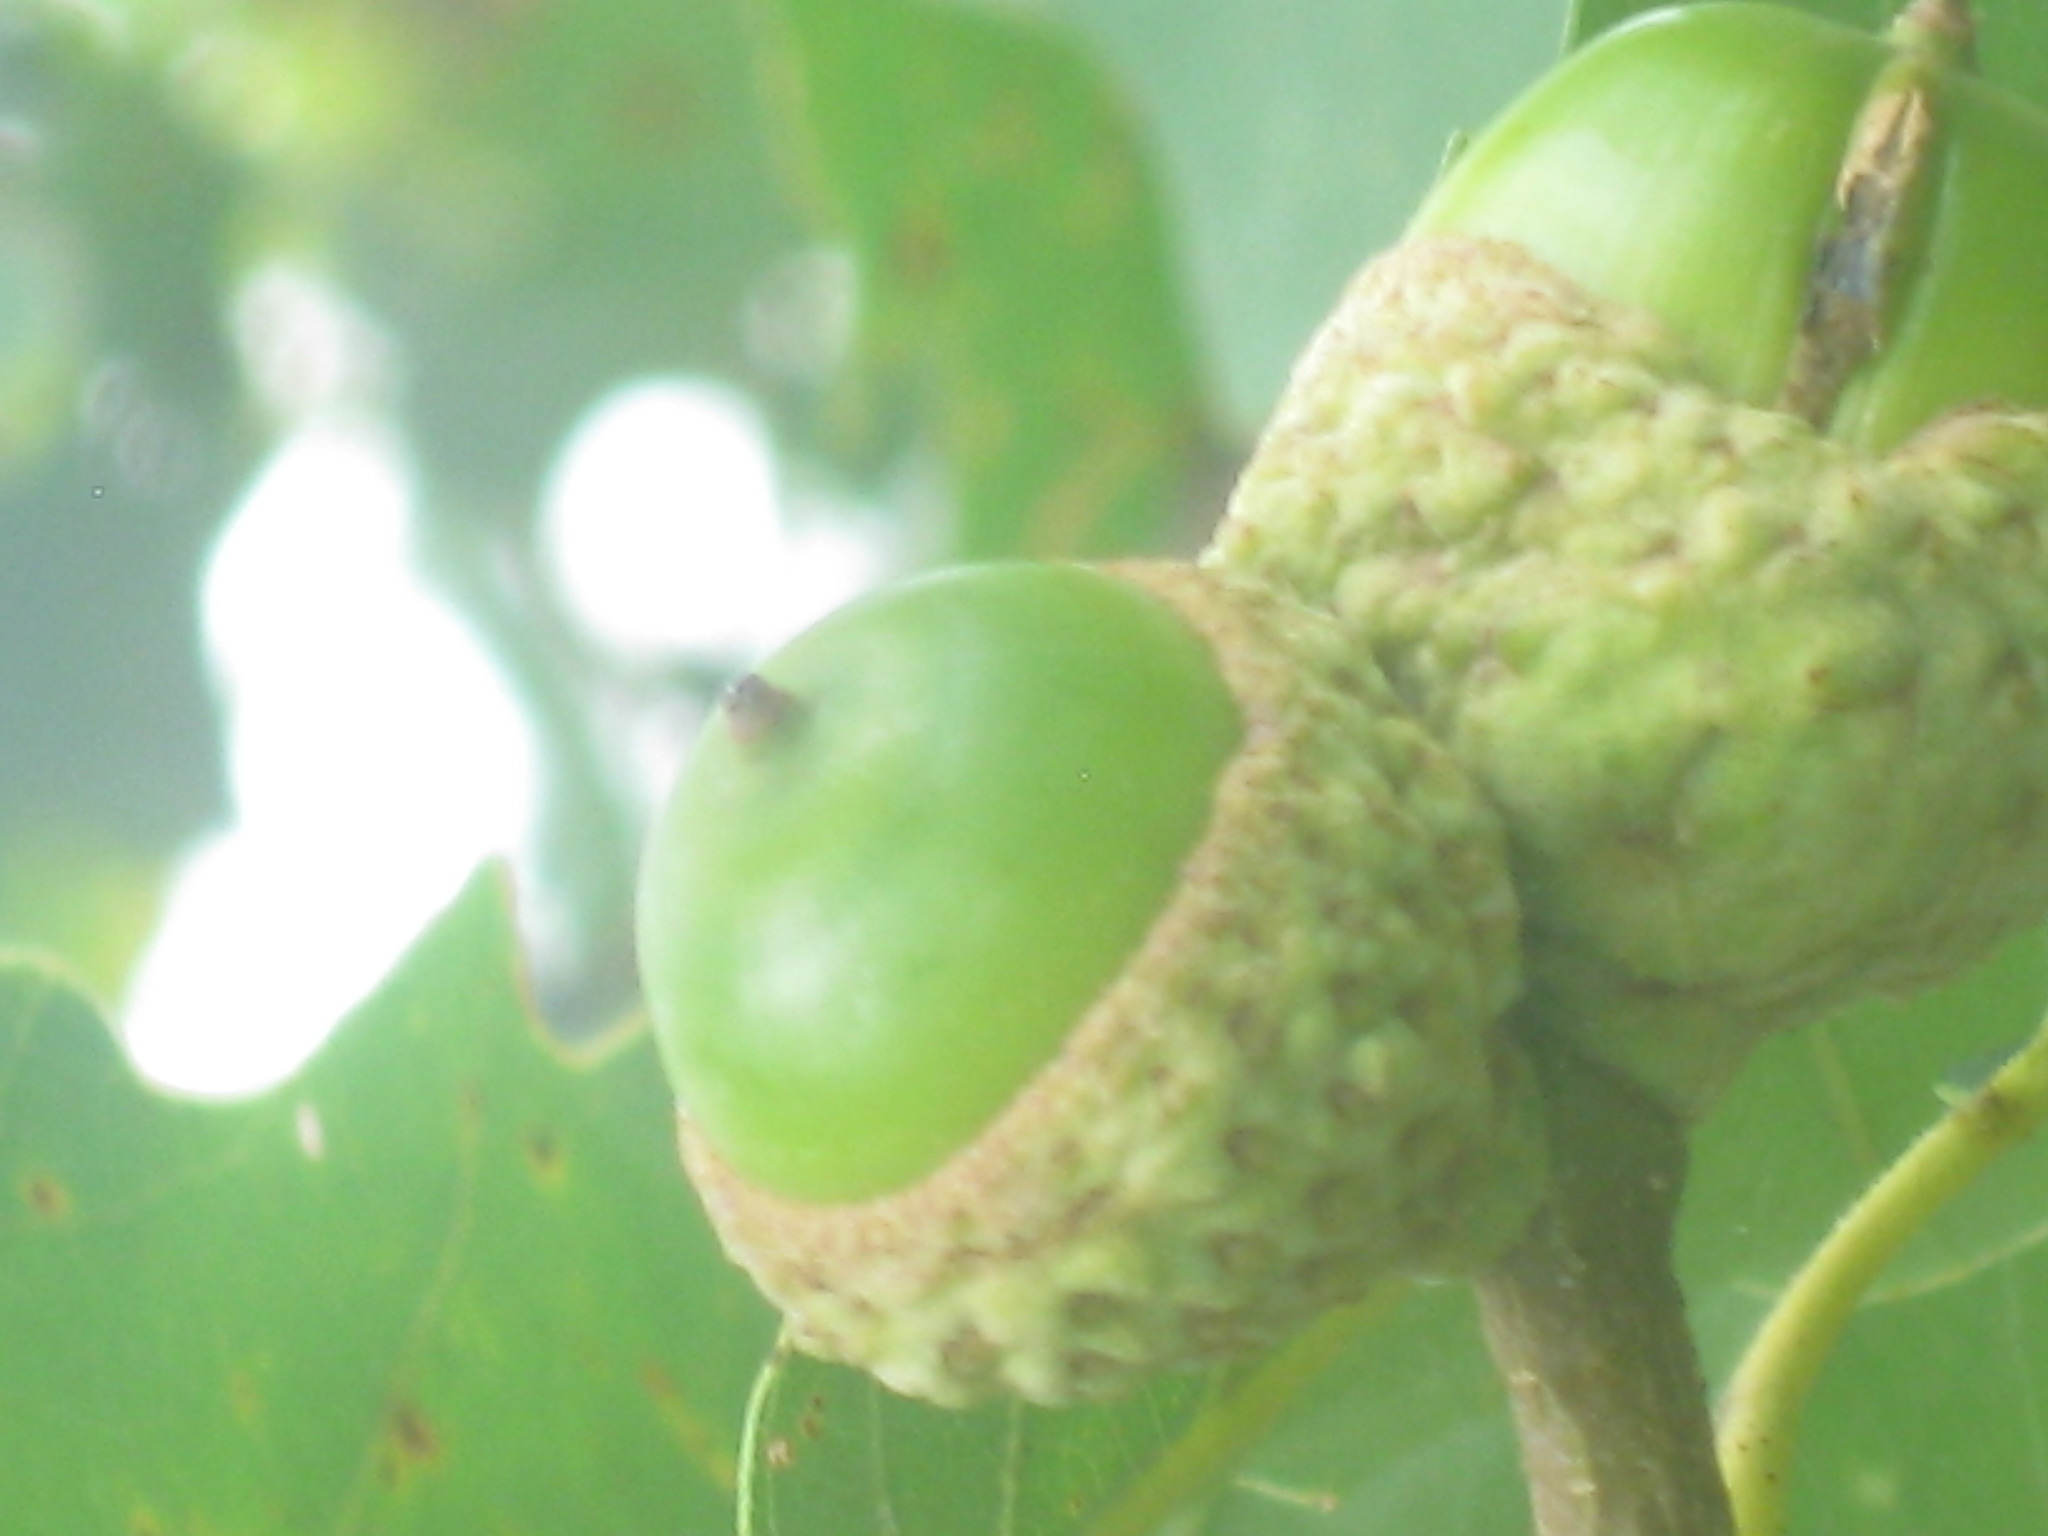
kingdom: Plantae
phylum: Tracheophyta
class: Magnoliopsida
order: Fagales
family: Fagaceae
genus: Quercus
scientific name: Quercus montana
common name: Chestnut oak
